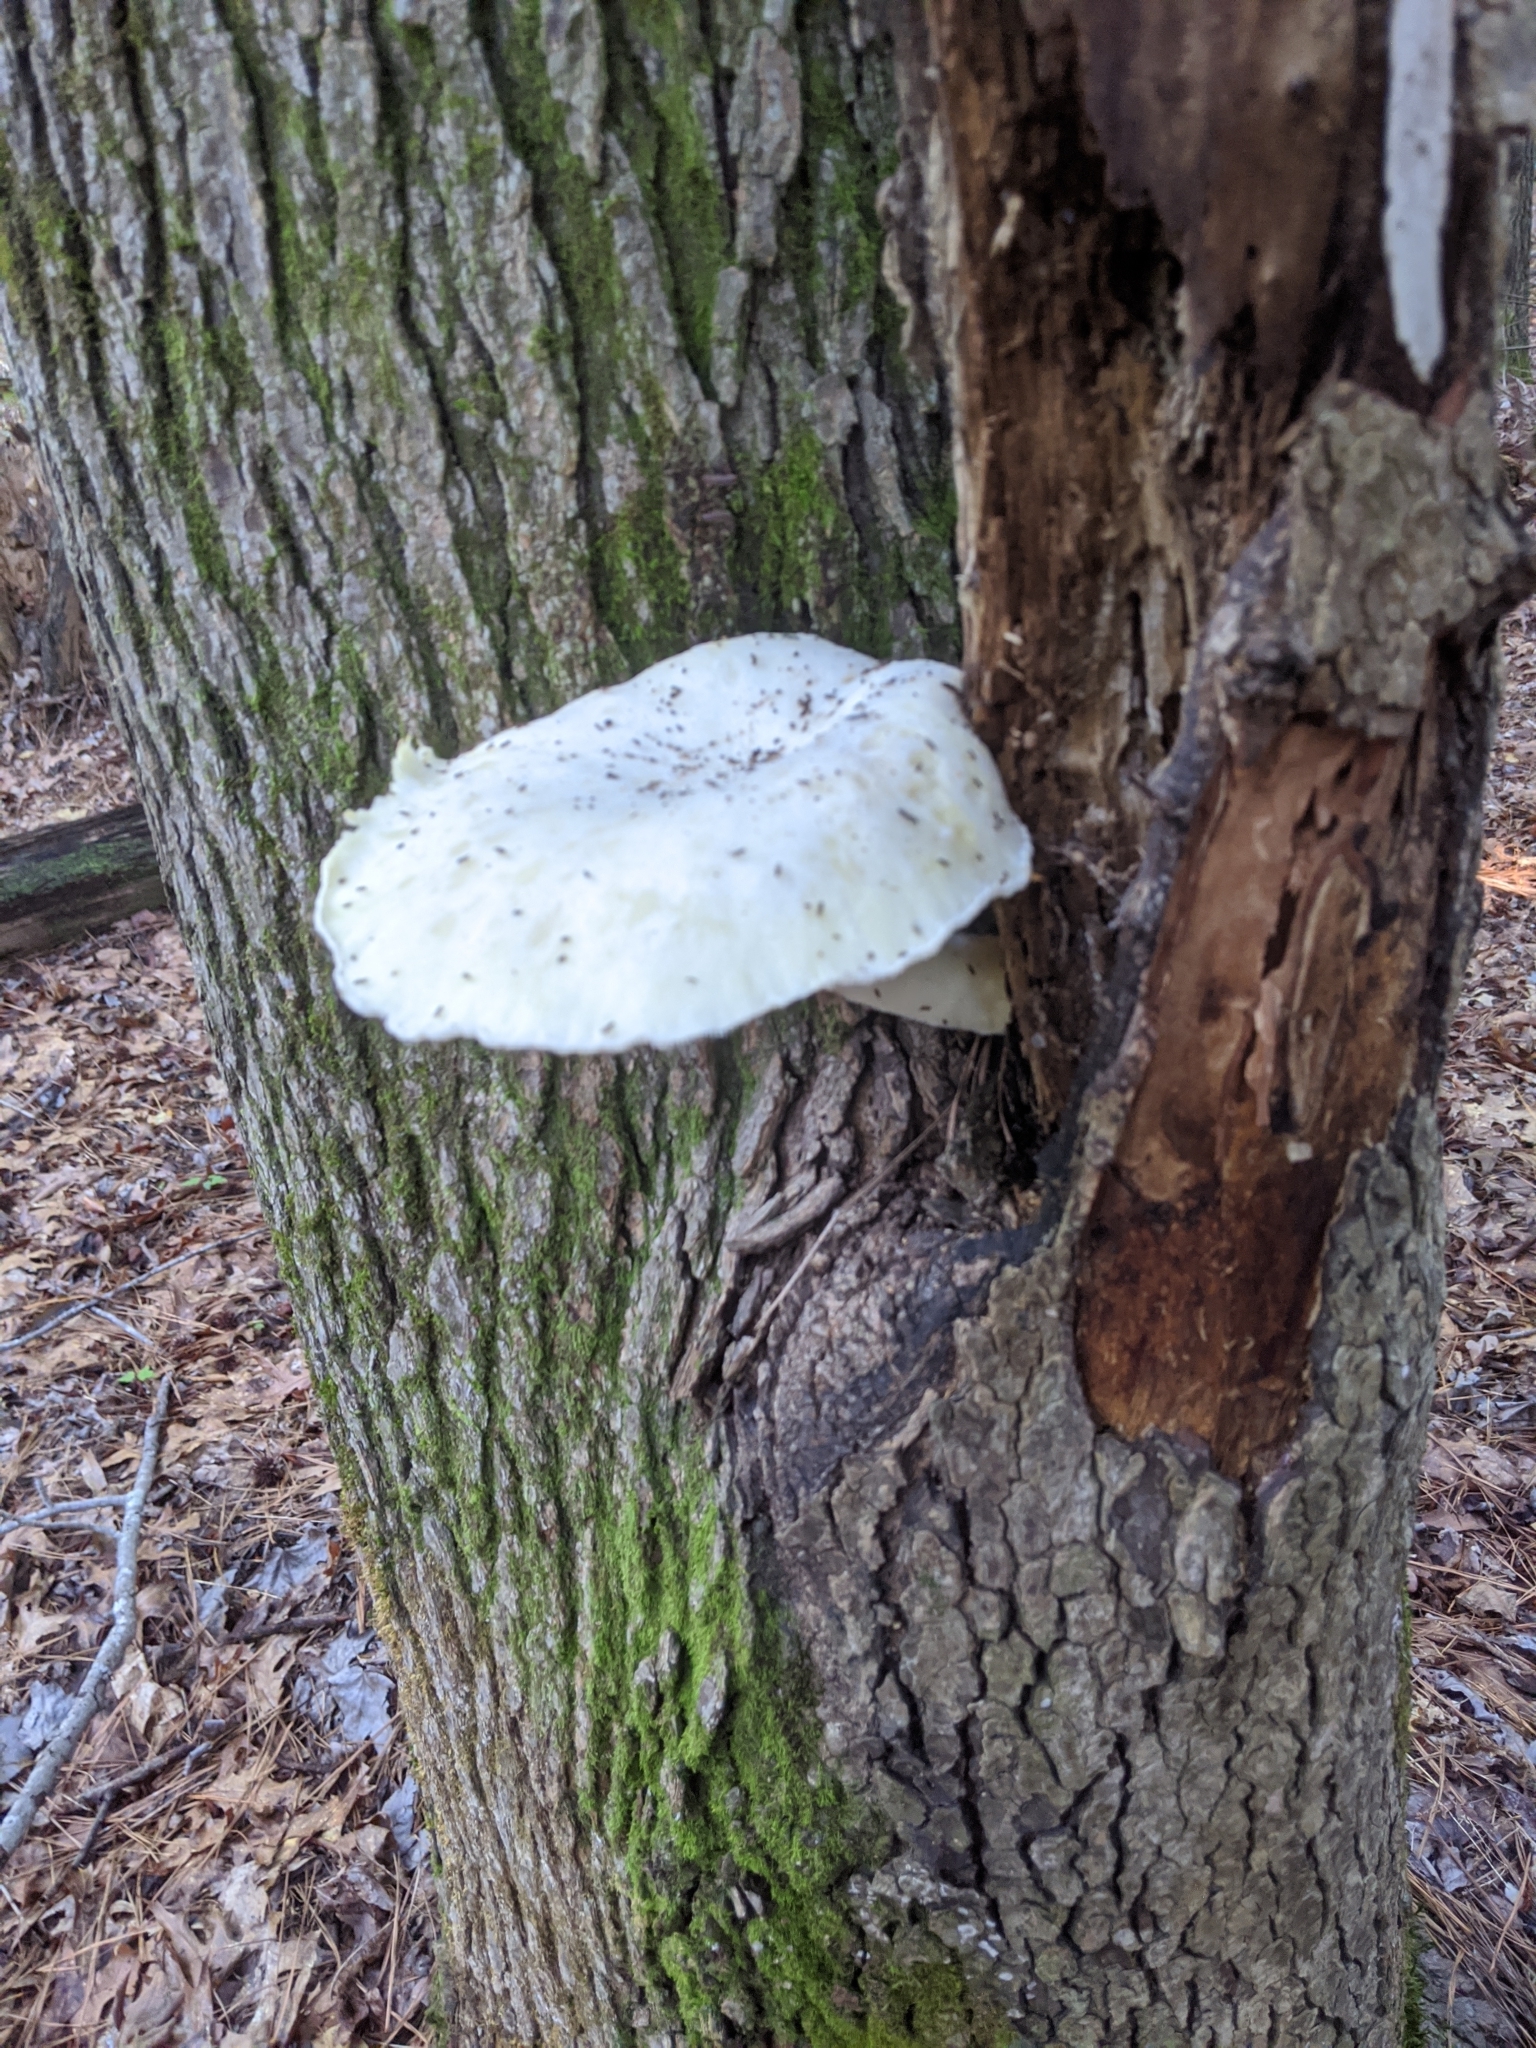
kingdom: Fungi
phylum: Basidiomycota
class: Agaricomycetes
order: Polyporales
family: Polyporaceae
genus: Lentinus
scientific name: Lentinus levis
